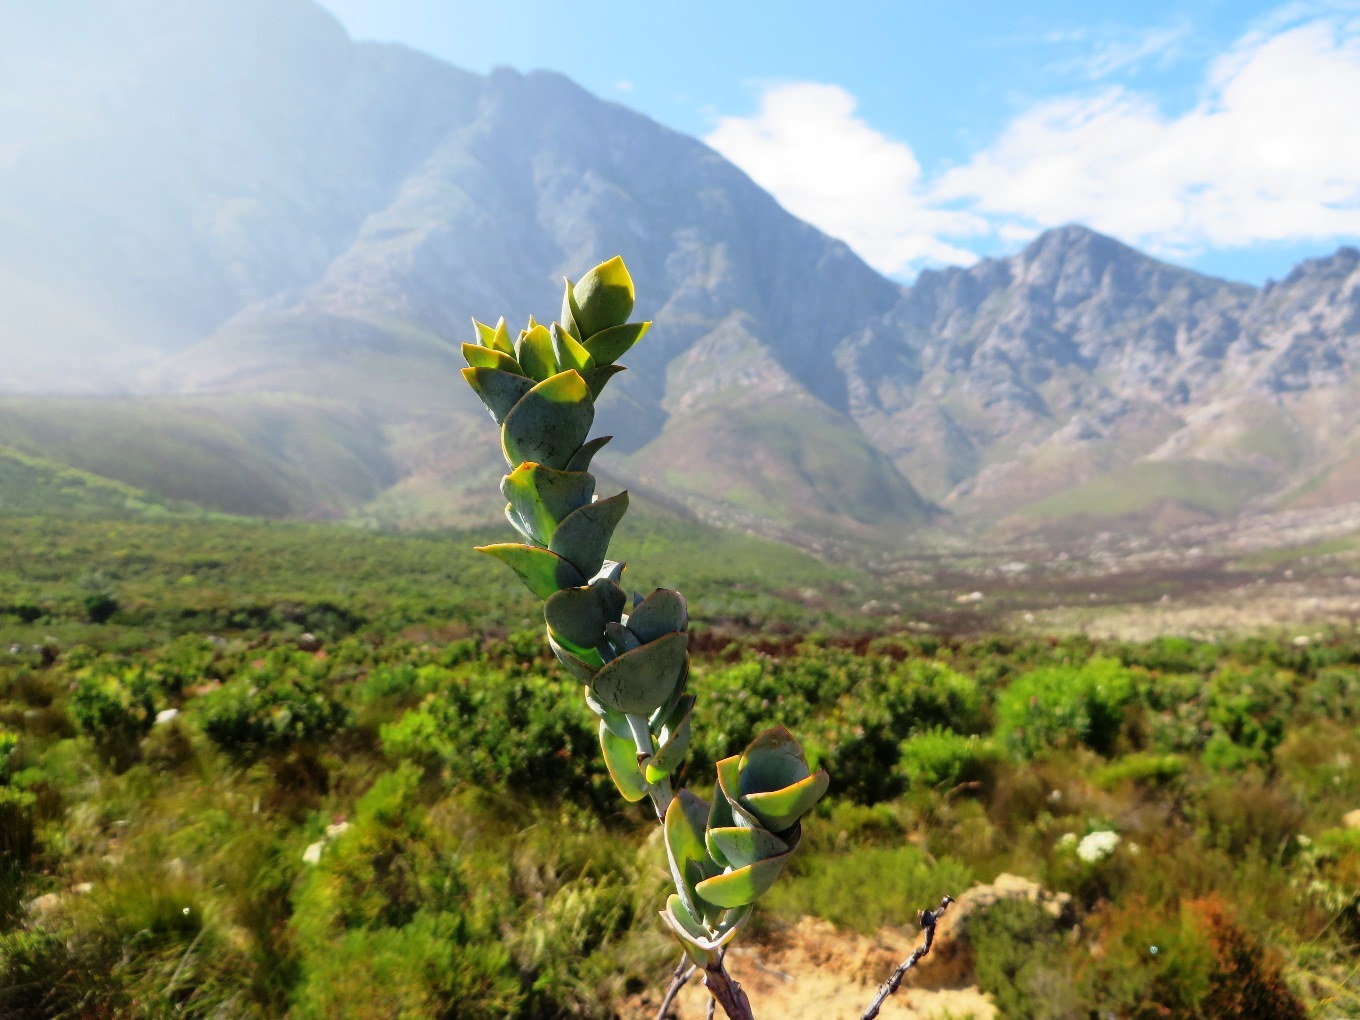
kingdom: Plantae
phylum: Tracheophyta
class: Magnoliopsida
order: Santalales
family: Thesiaceae
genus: Thesium
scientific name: Thesium euphorbioides
